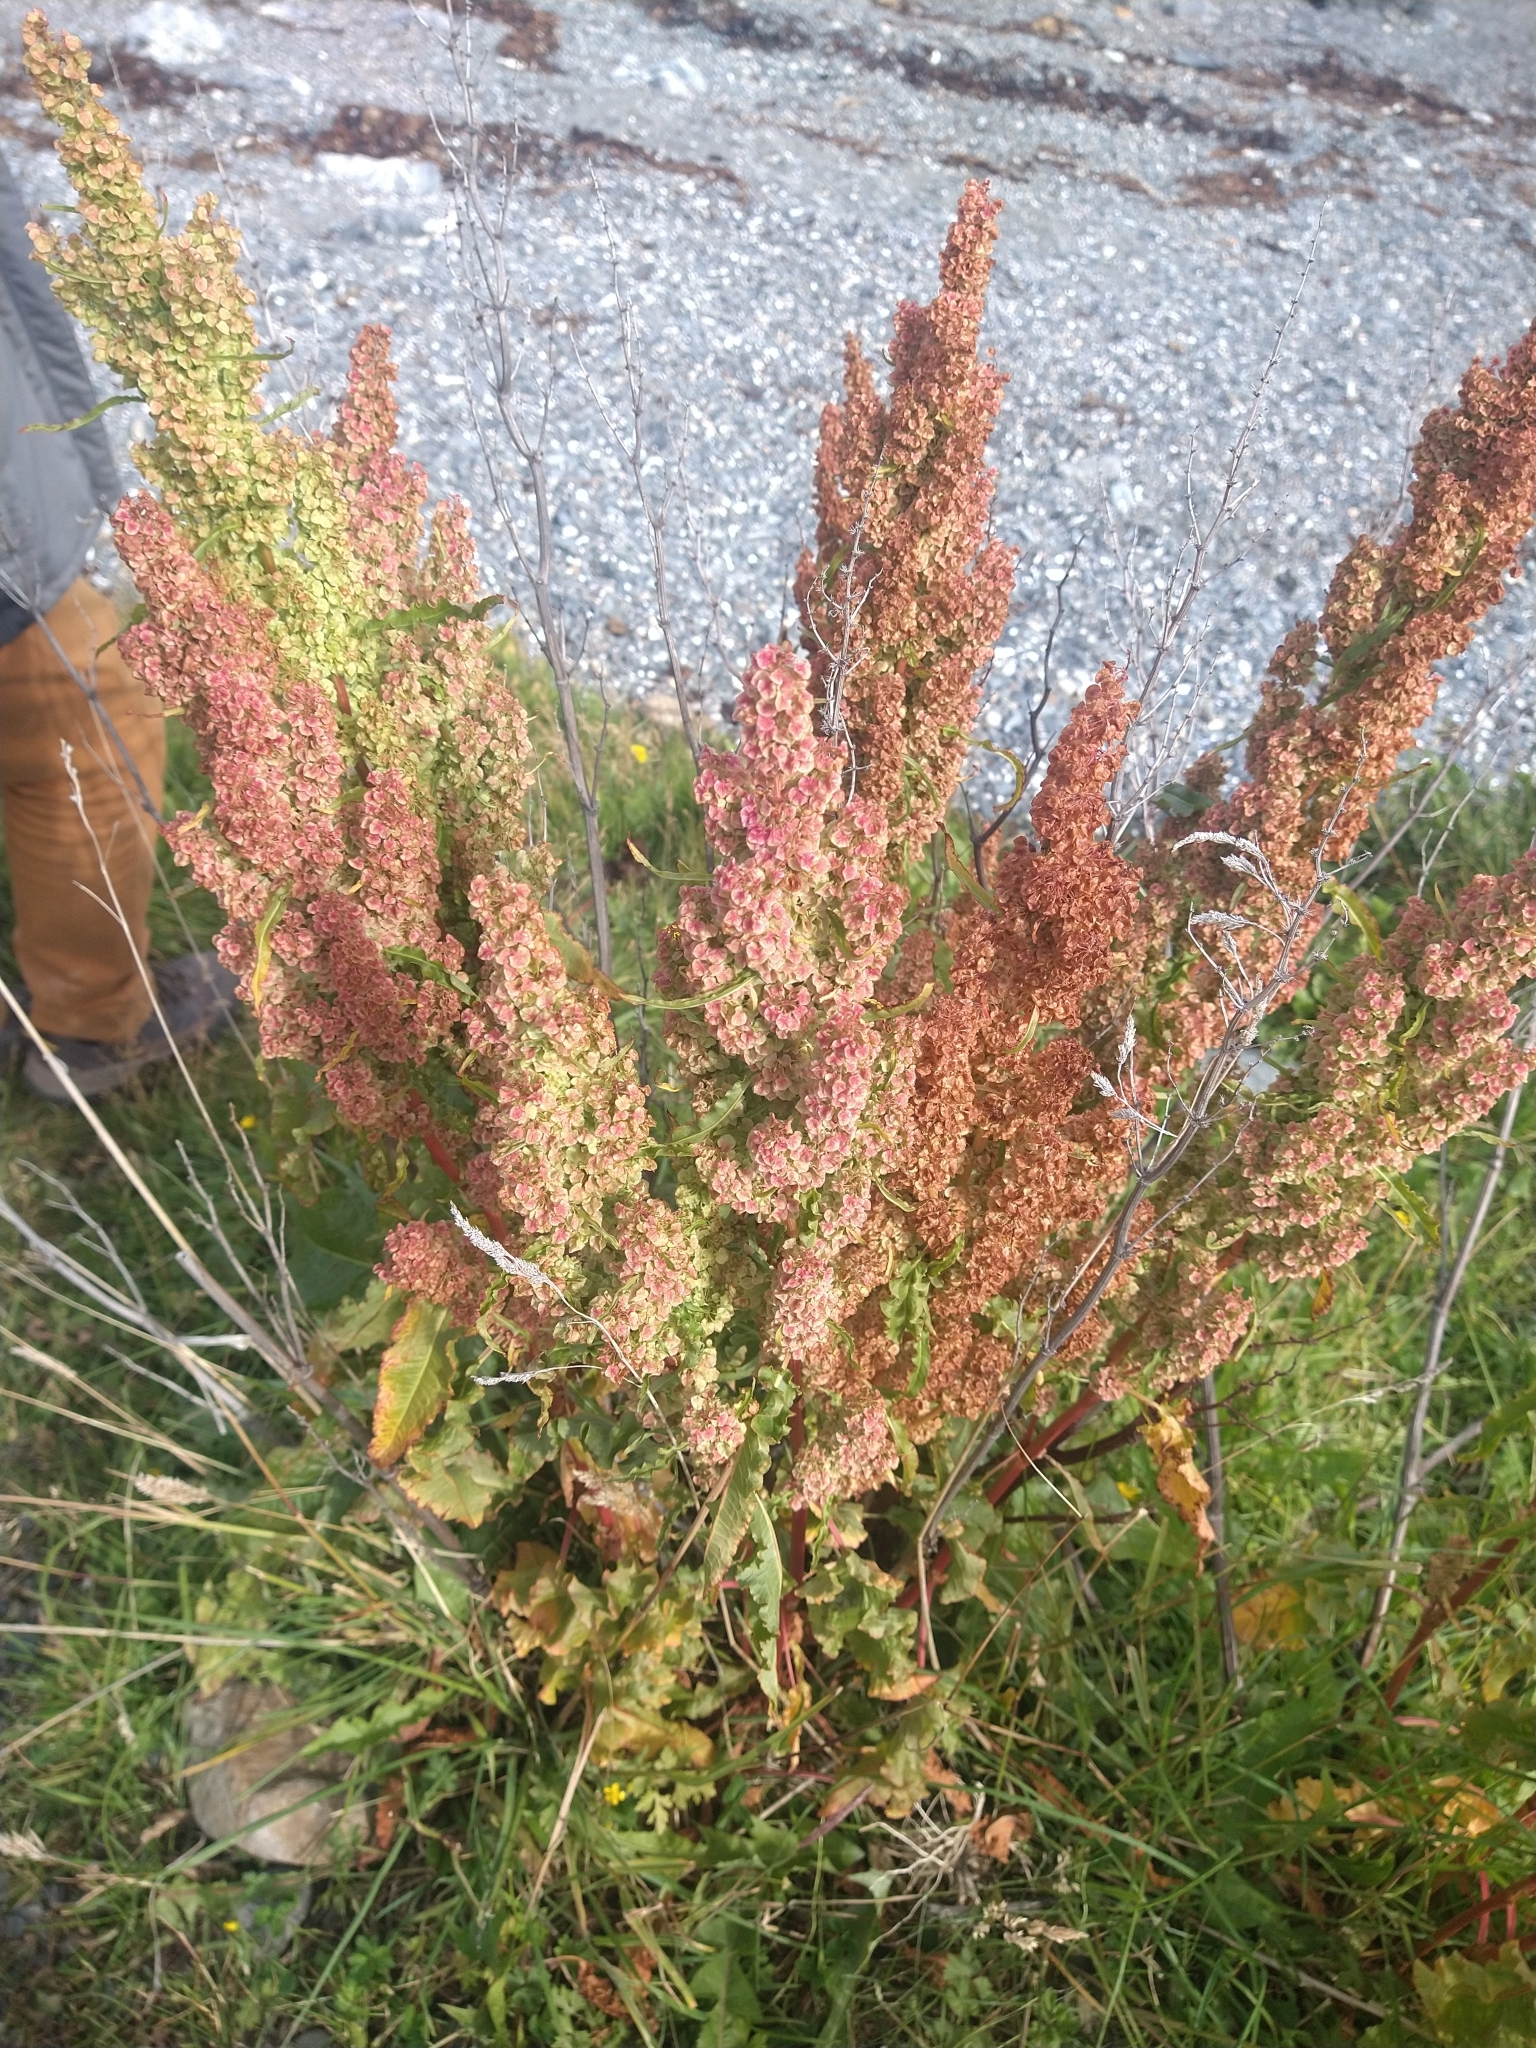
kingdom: Plantae
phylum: Tracheophyta
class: Magnoliopsida
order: Caryophyllales
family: Polygonaceae
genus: Rumex
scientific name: Rumex crispus
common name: Curled dock
